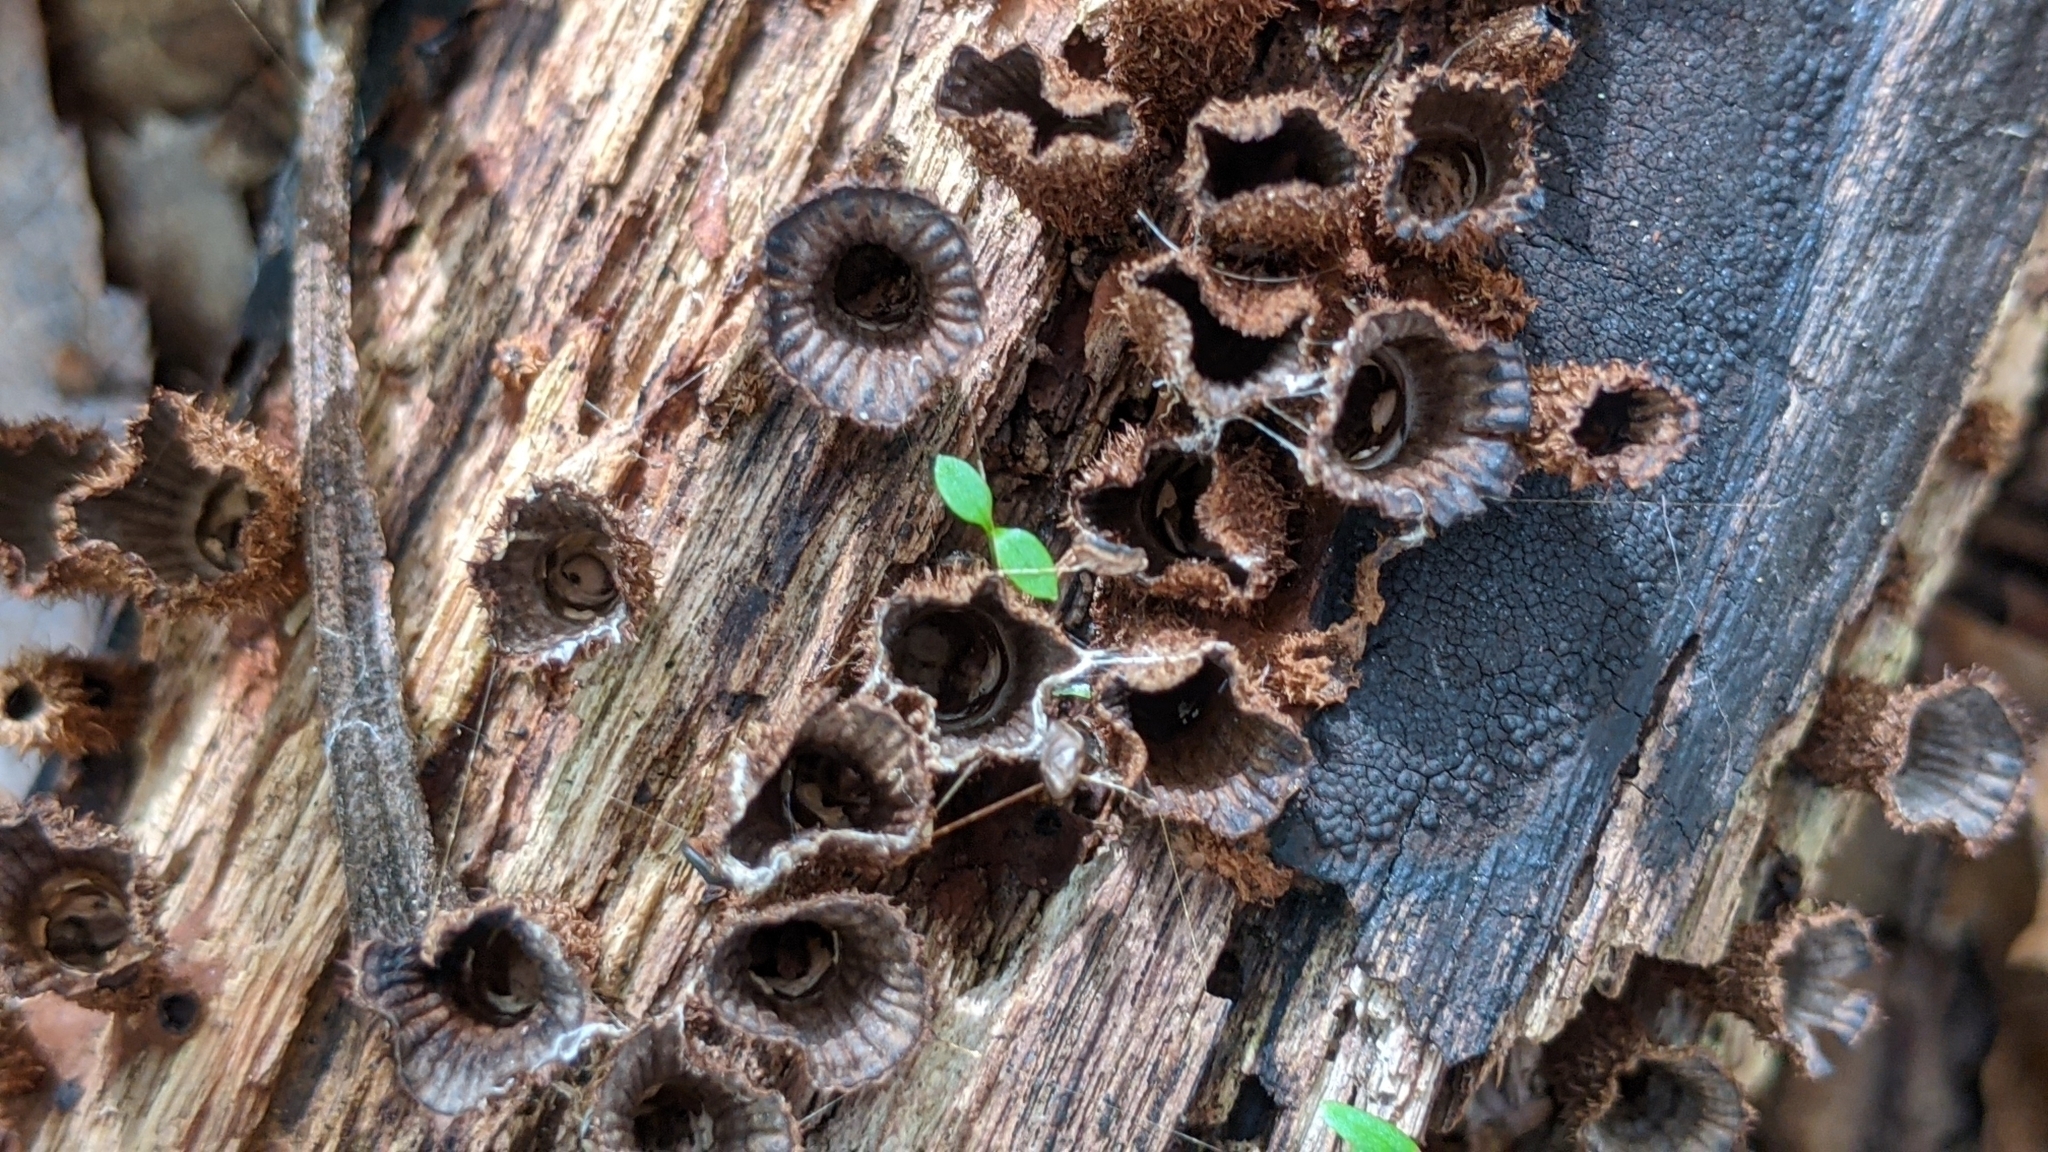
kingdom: Fungi
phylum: Basidiomycota
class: Agaricomycetes
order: Agaricales
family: Agaricaceae
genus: Cyathus
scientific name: Cyathus striatus
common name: Fluted bird's nest
